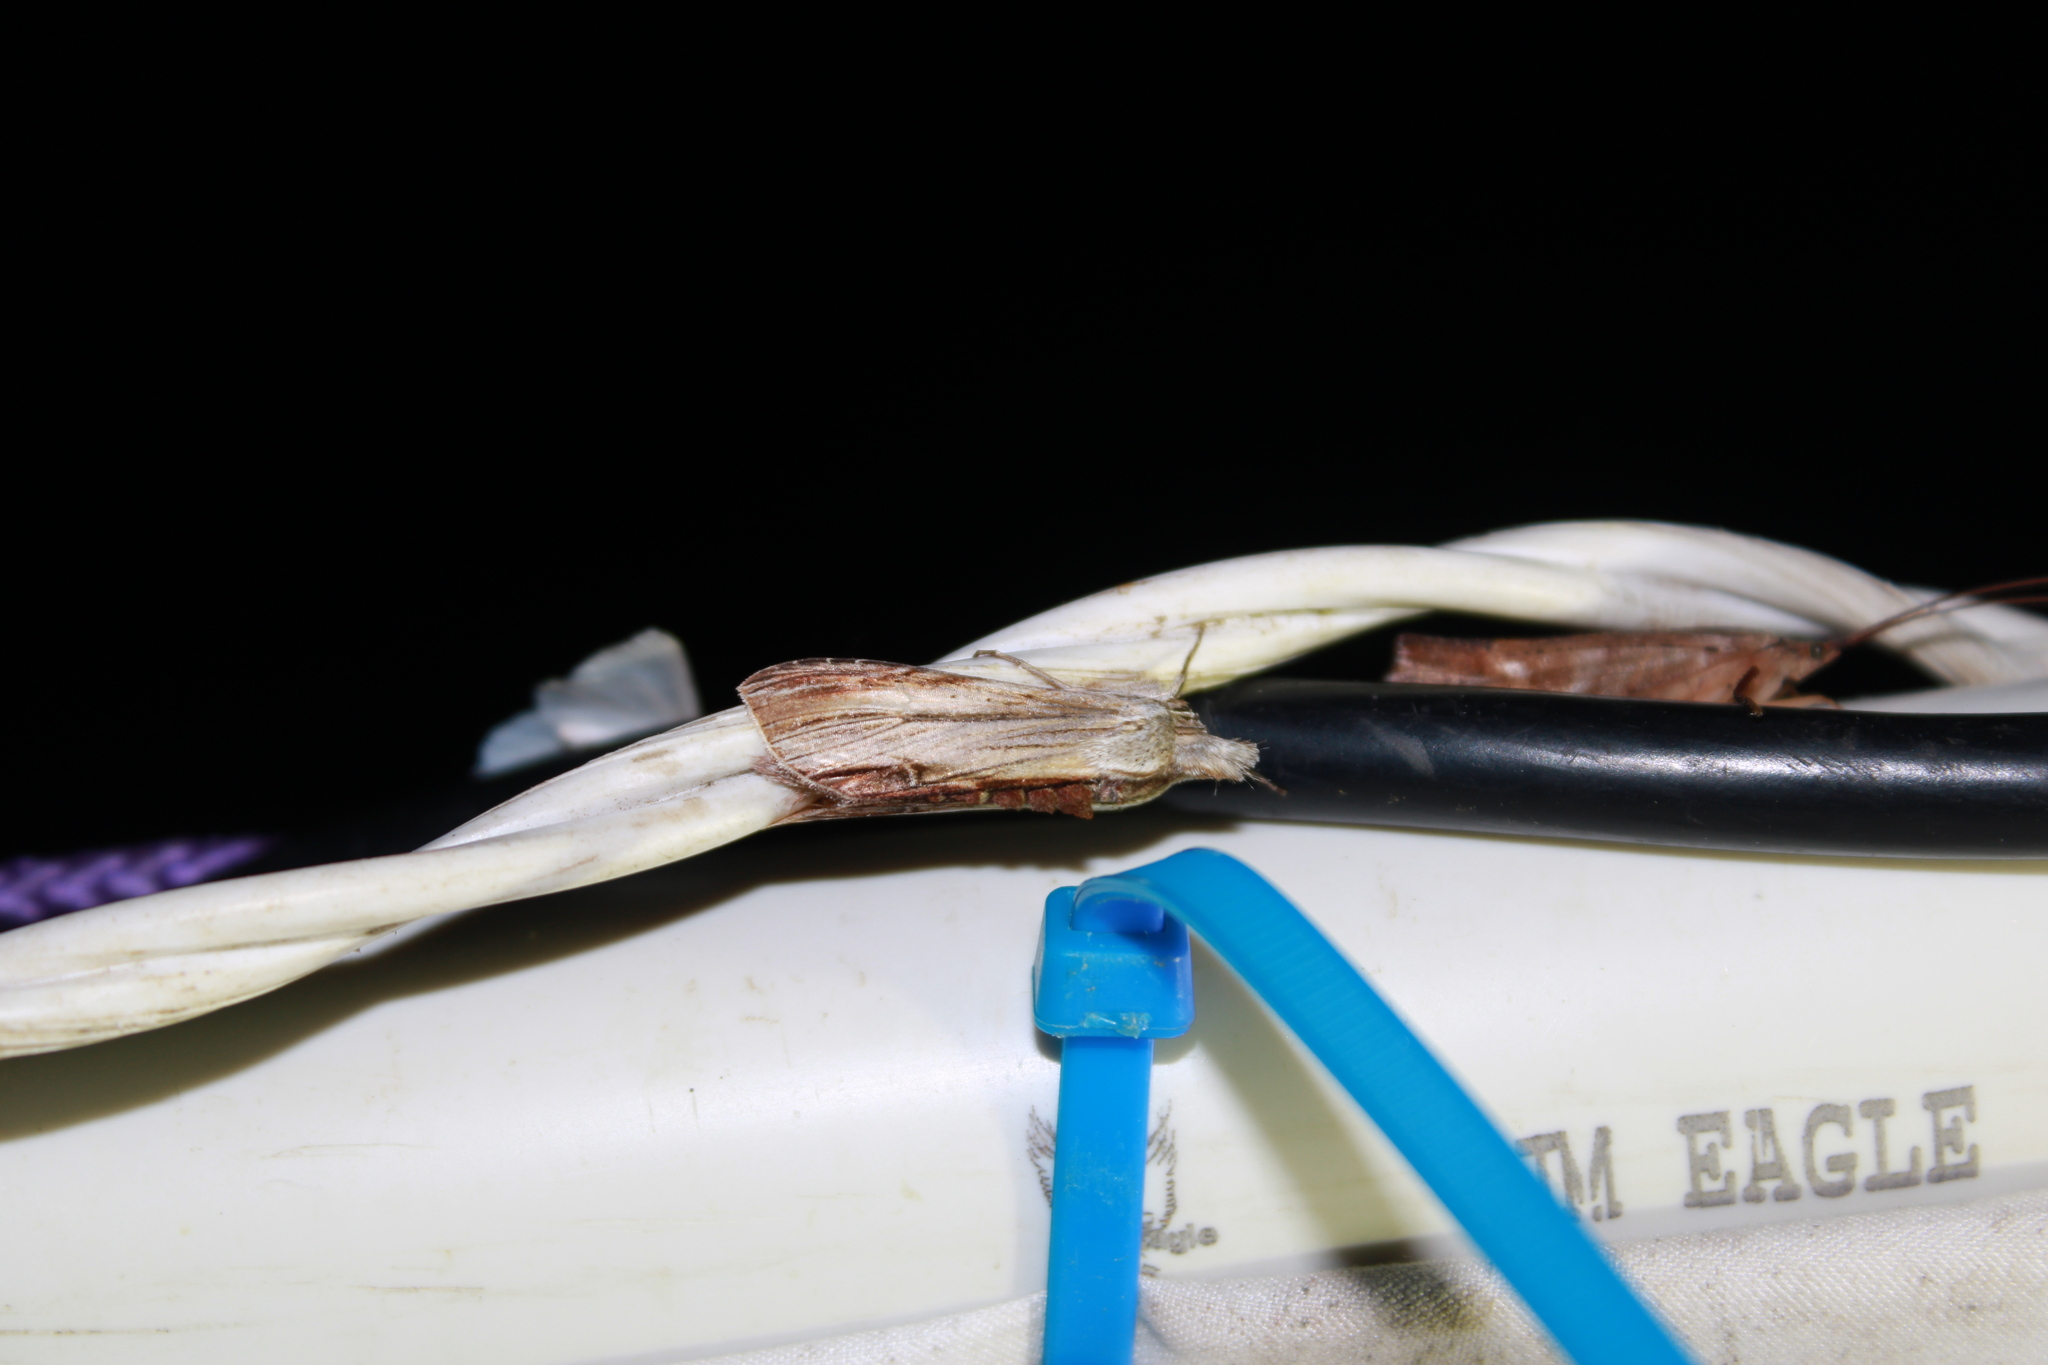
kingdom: Animalia
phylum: Arthropoda
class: Insecta
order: Lepidoptera
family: Noctuidae
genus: Cucullia
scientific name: Cucullia convexipennis
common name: Brown-hooded owlet
